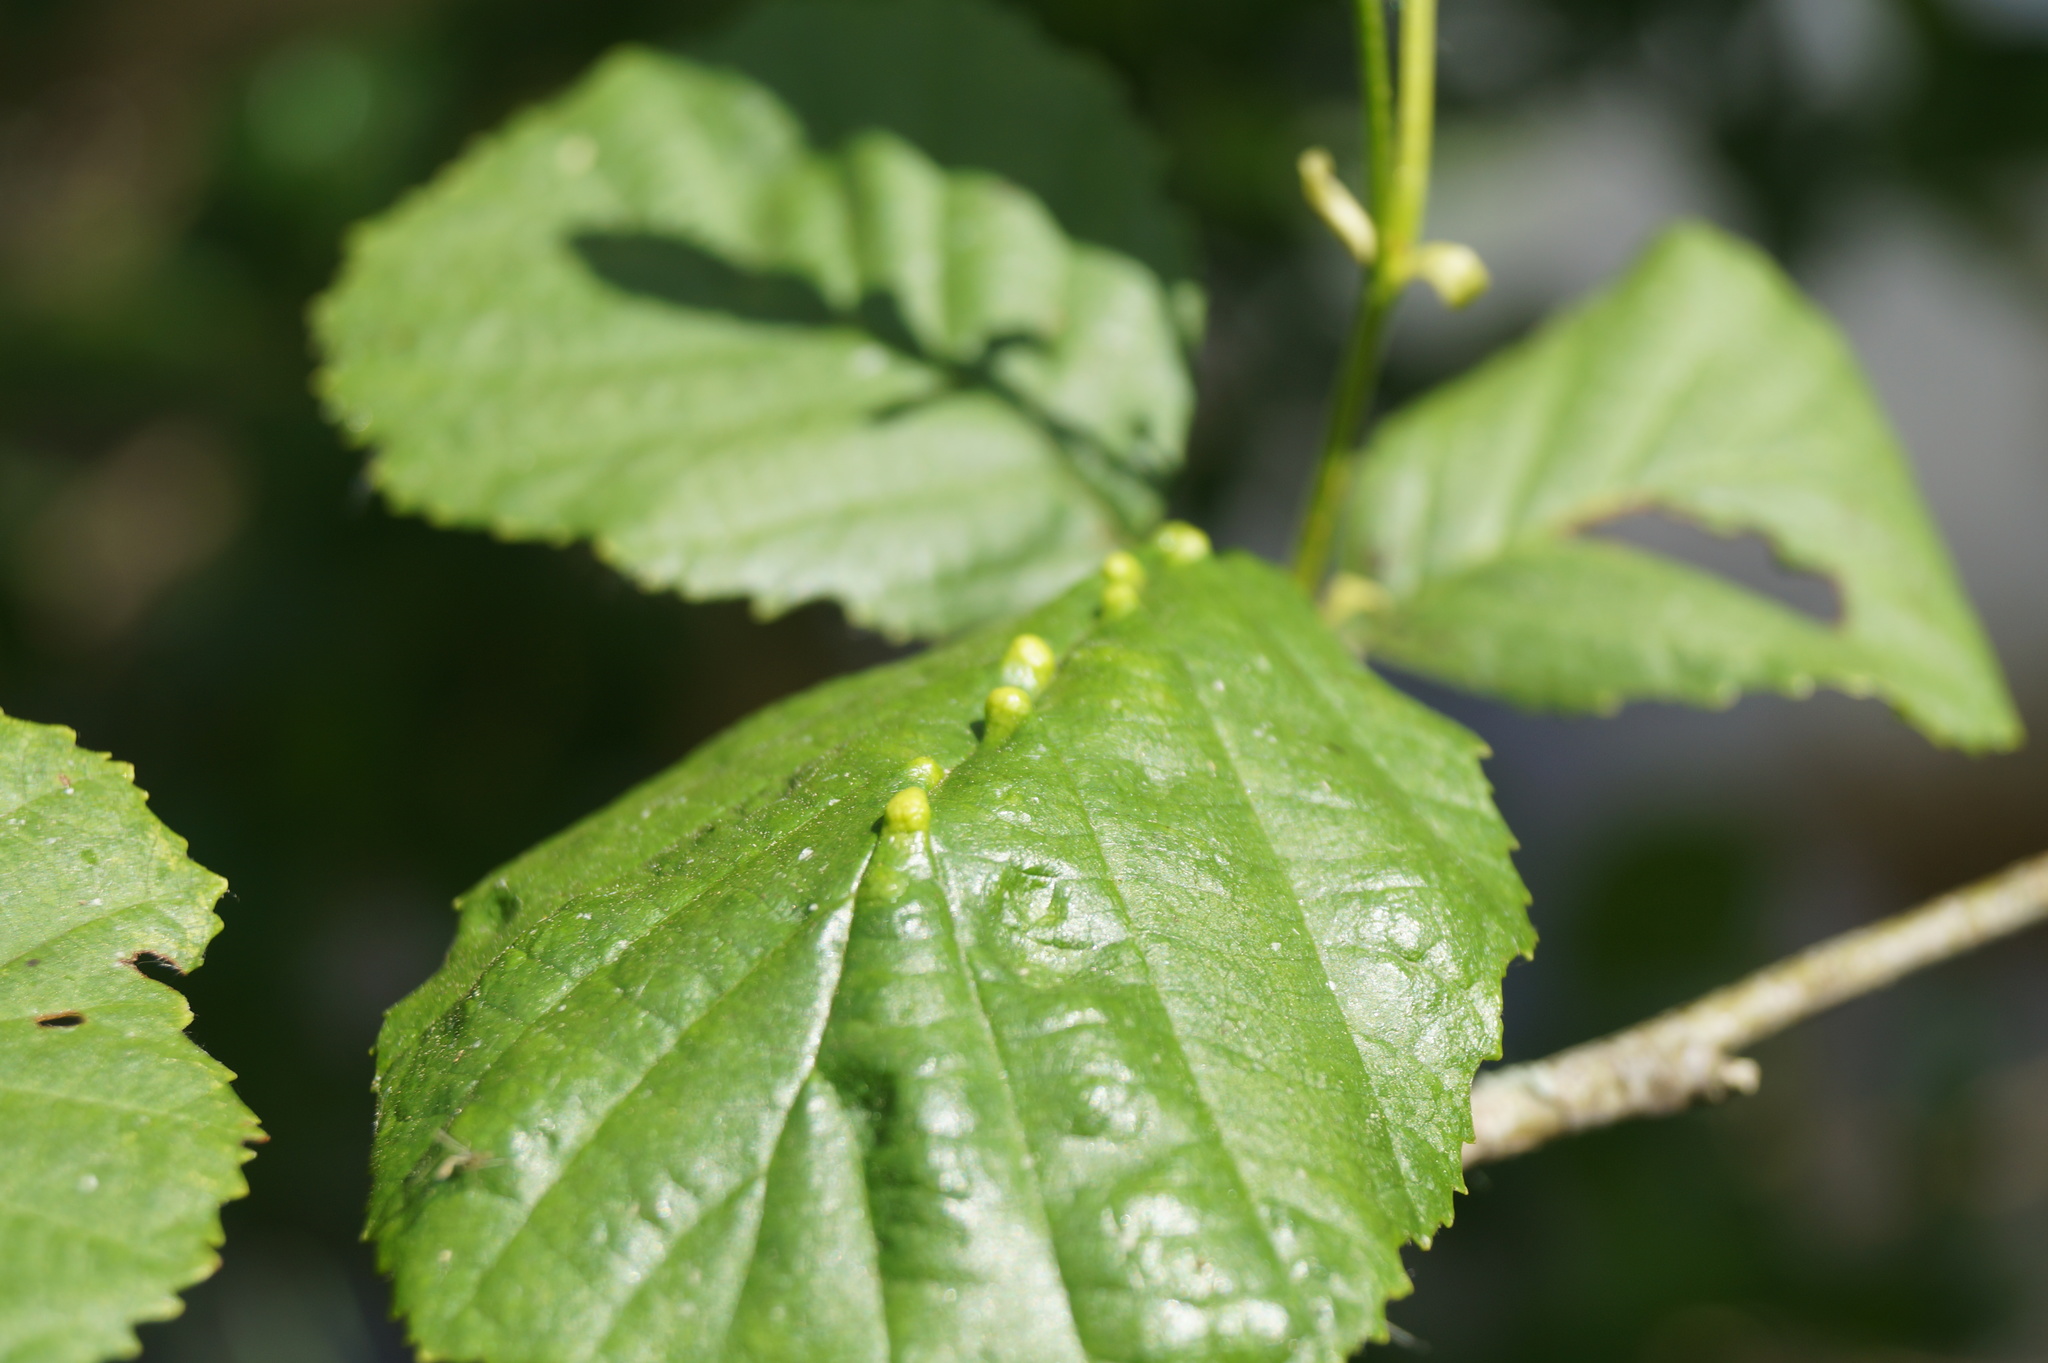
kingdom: Plantae
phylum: Tracheophyta
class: Magnoliopsida
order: Fagales
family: Betulaceae
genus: Alnus
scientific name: Alnus glutinosa
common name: Black alder
